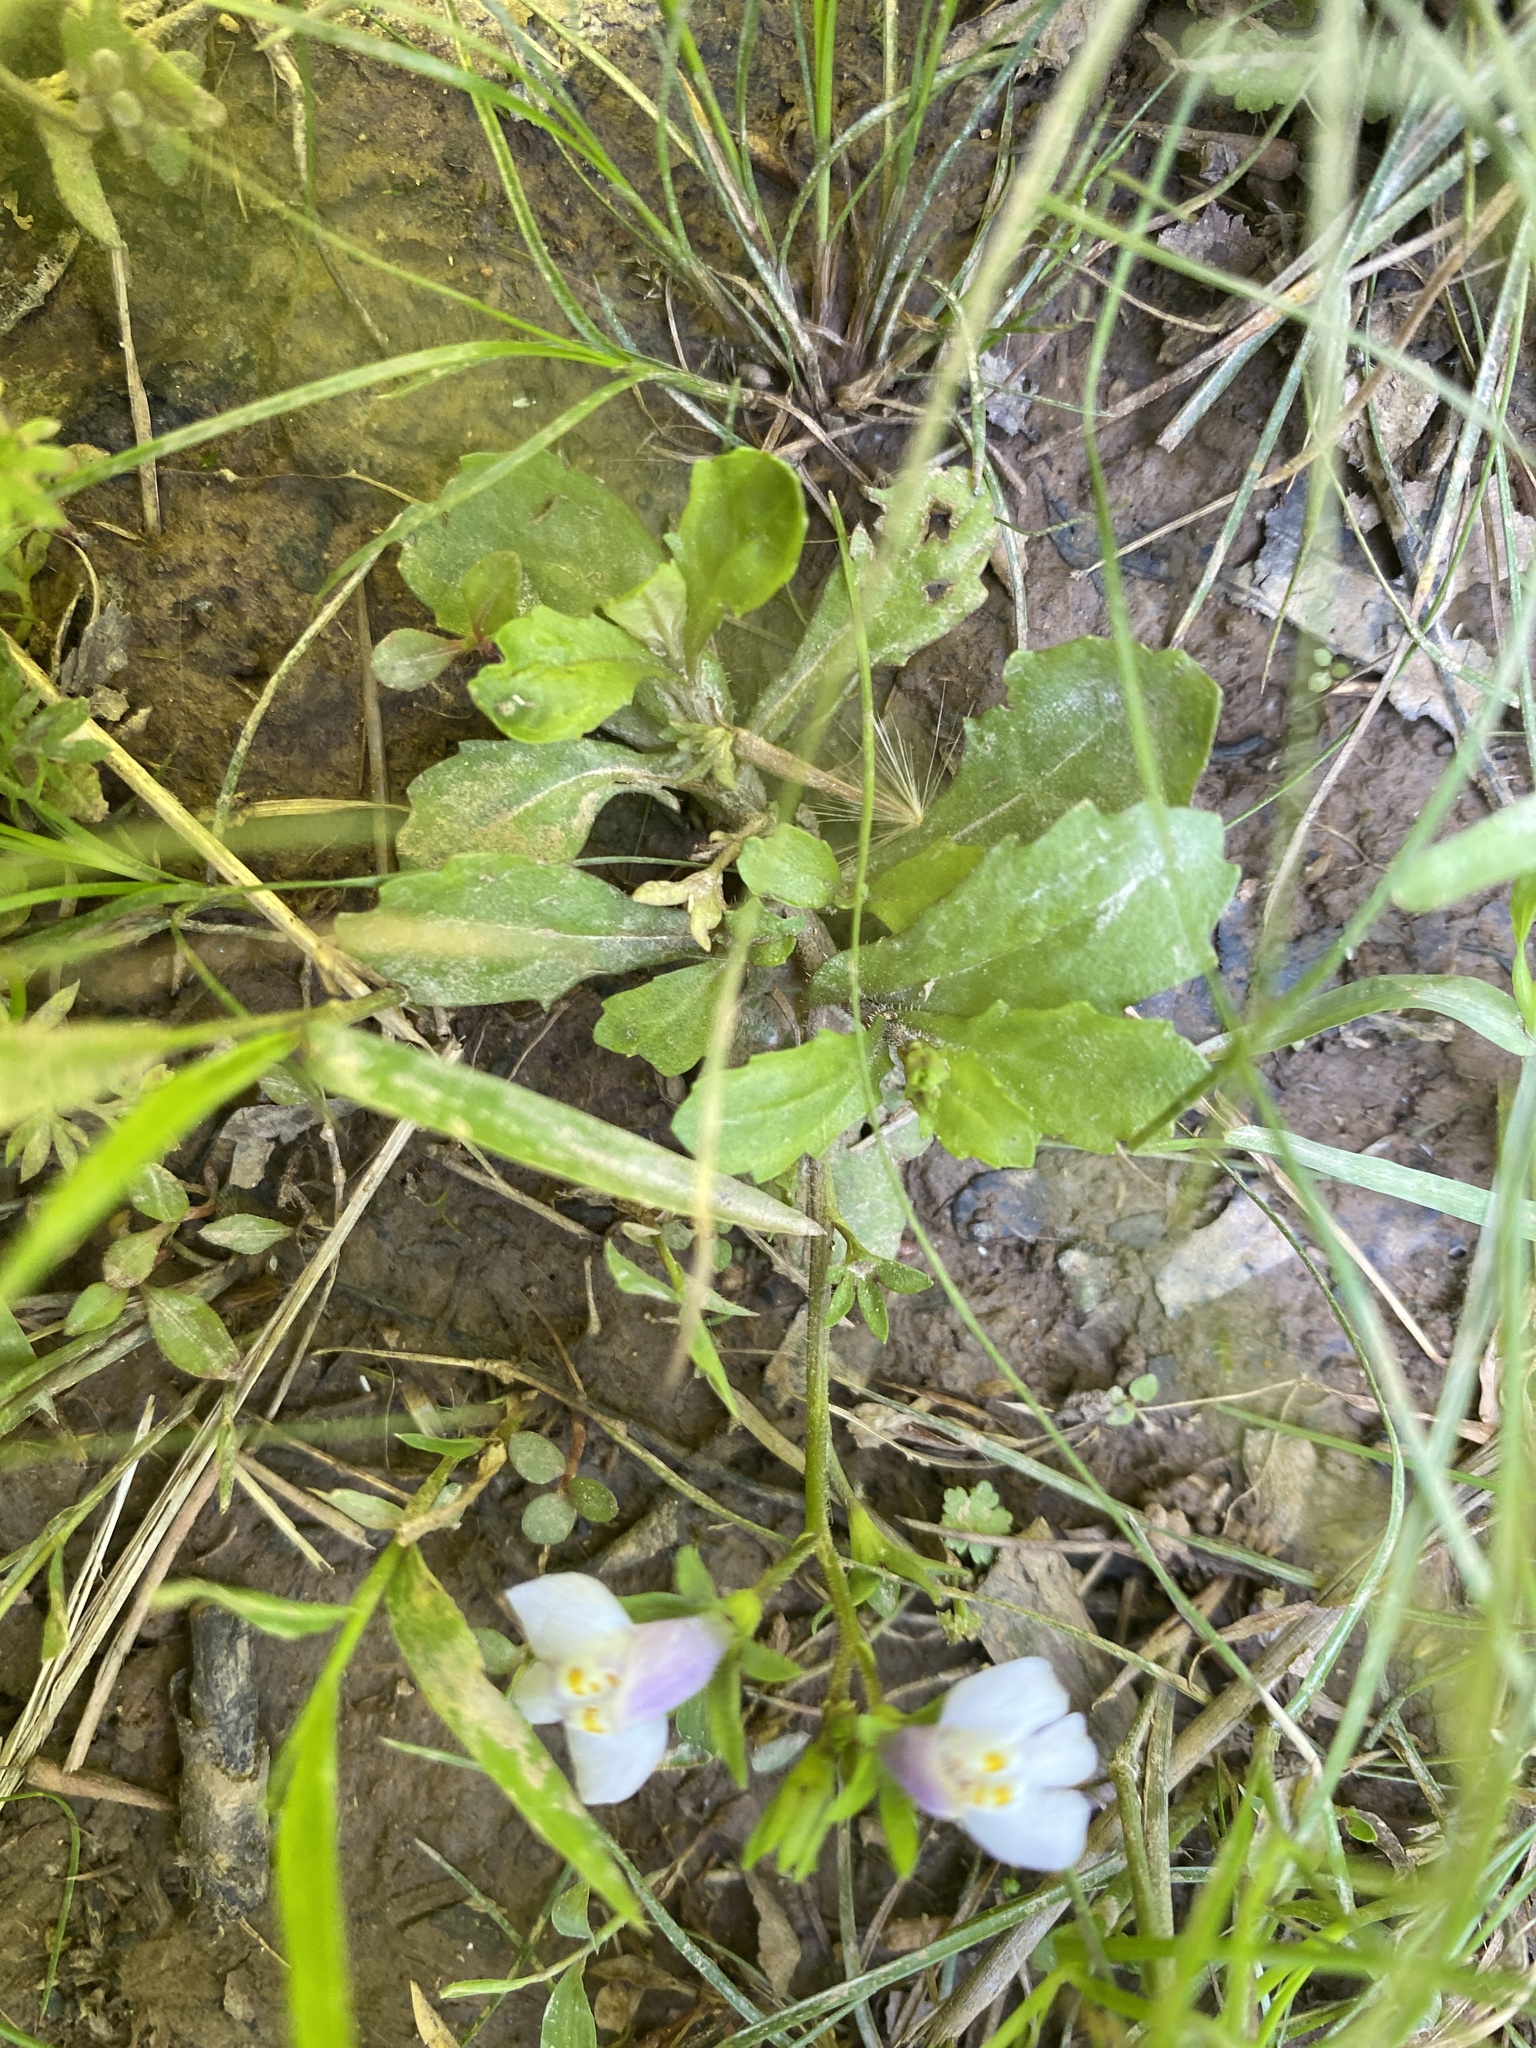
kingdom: Plantae
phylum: Tracheophyta
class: Magnoliopsida
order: Lamiales
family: Mazaceae
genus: Mazus
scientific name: Mazus pumilus
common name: Japanese mazus
